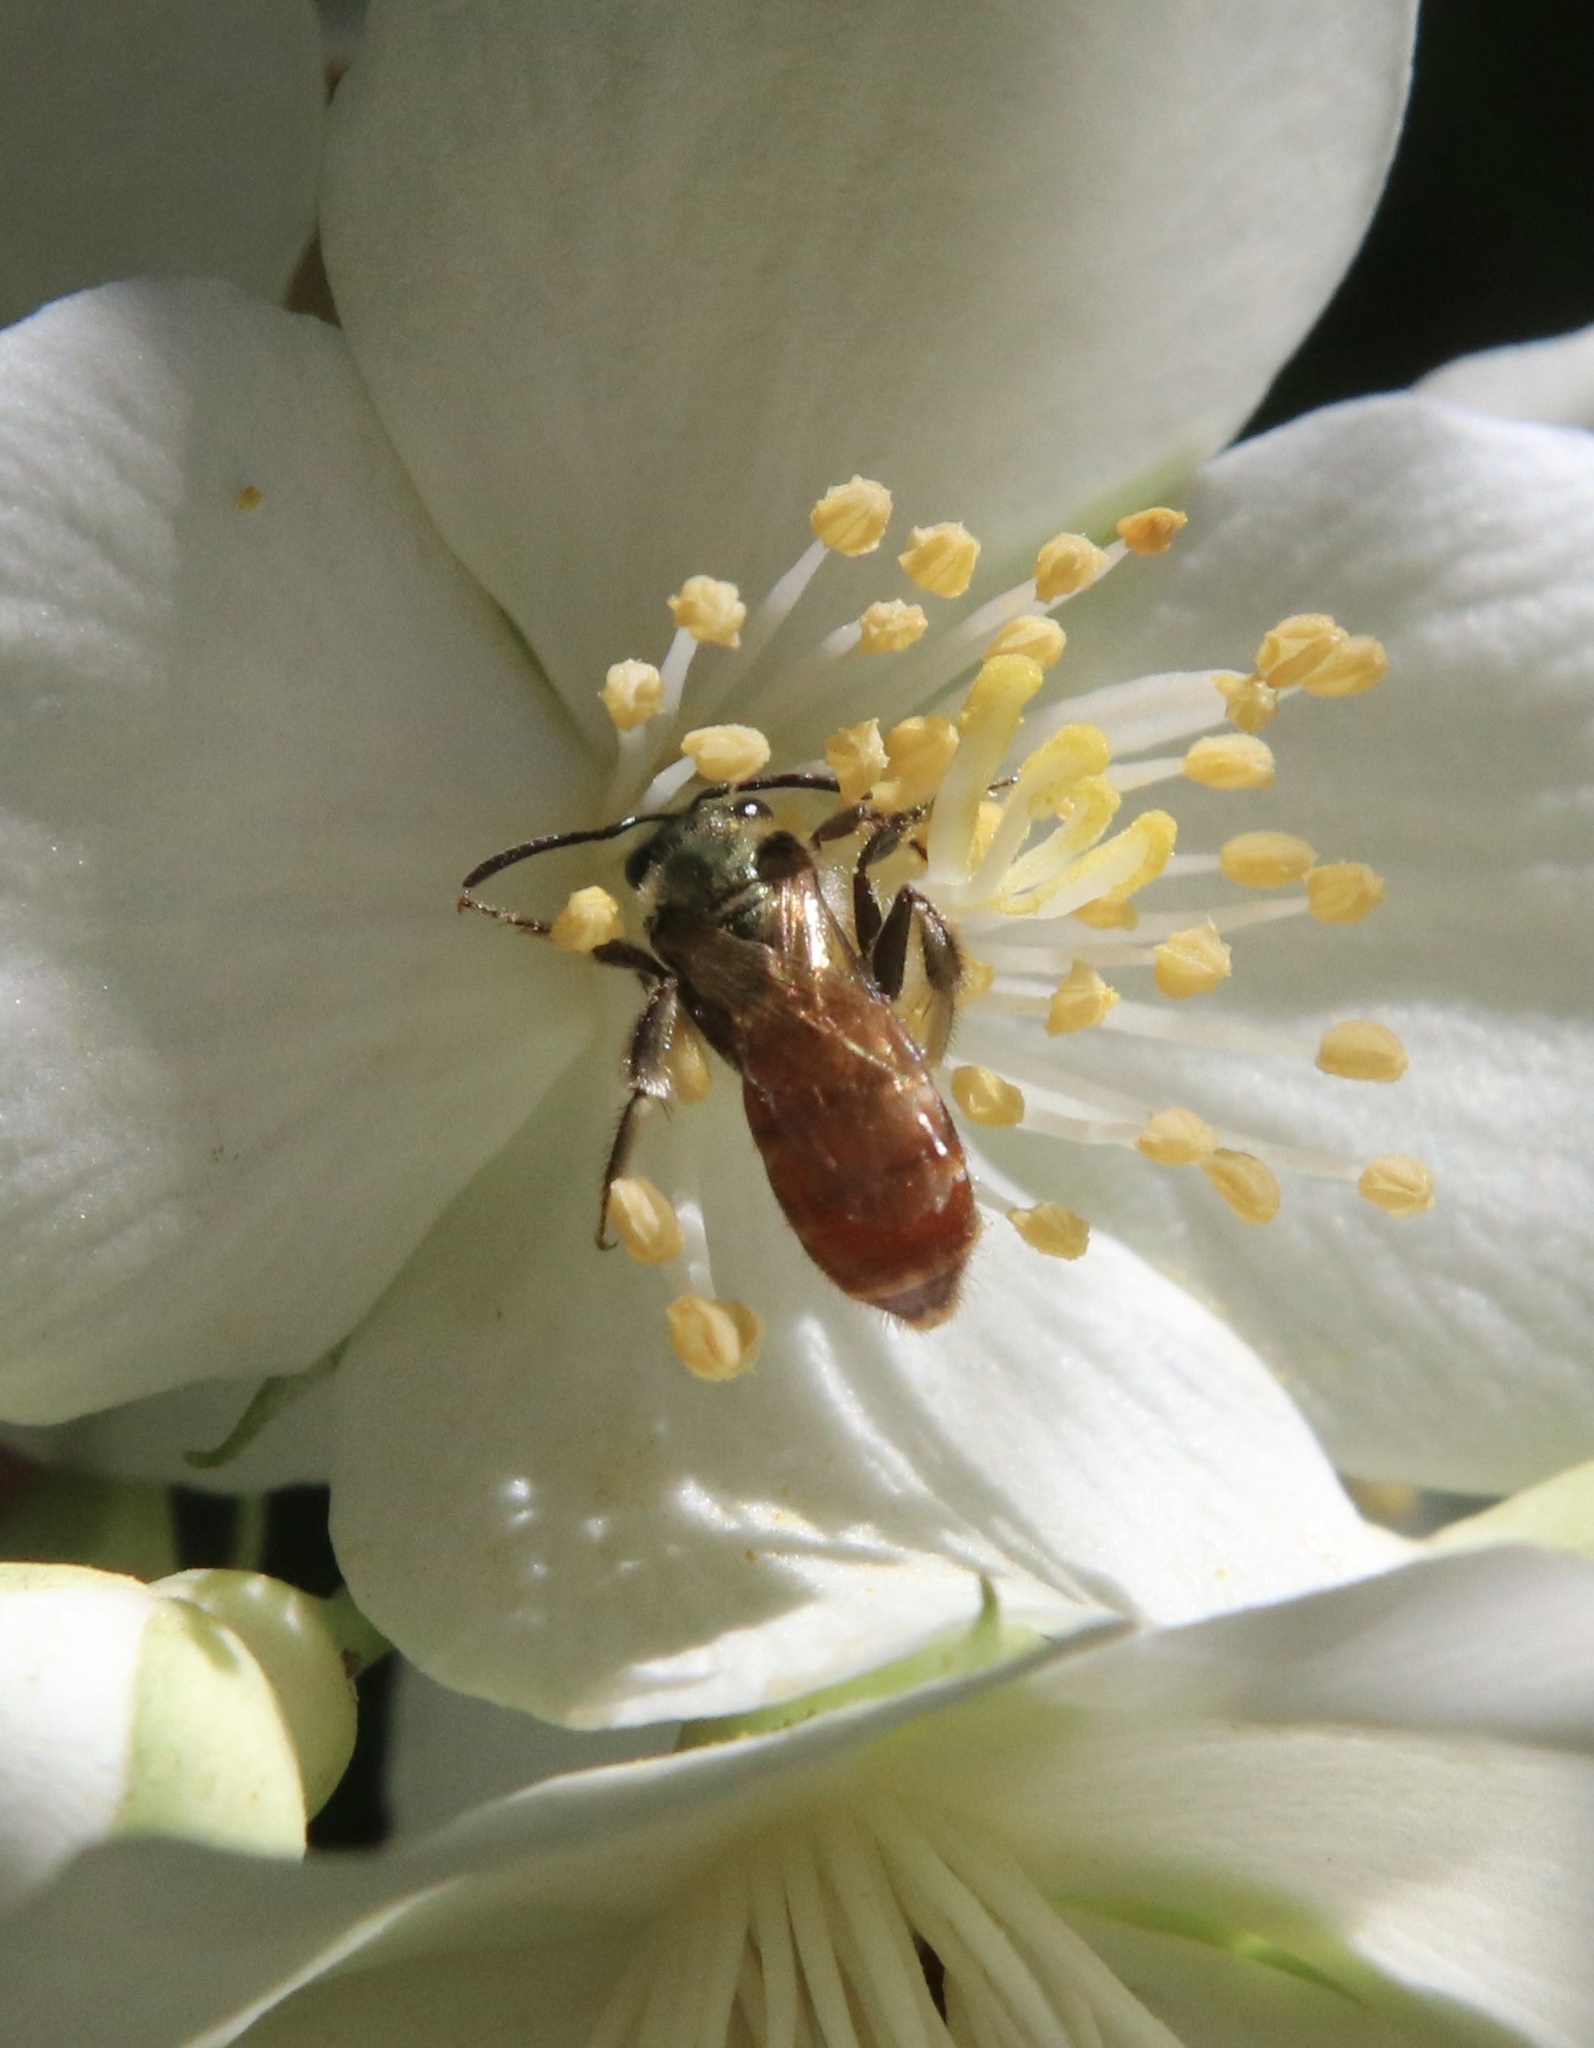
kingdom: Animalia
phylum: Arthropoda
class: Insecta
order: Hymenoptera
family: Halictidae
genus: Corynura
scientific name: Corynura corinogaster
